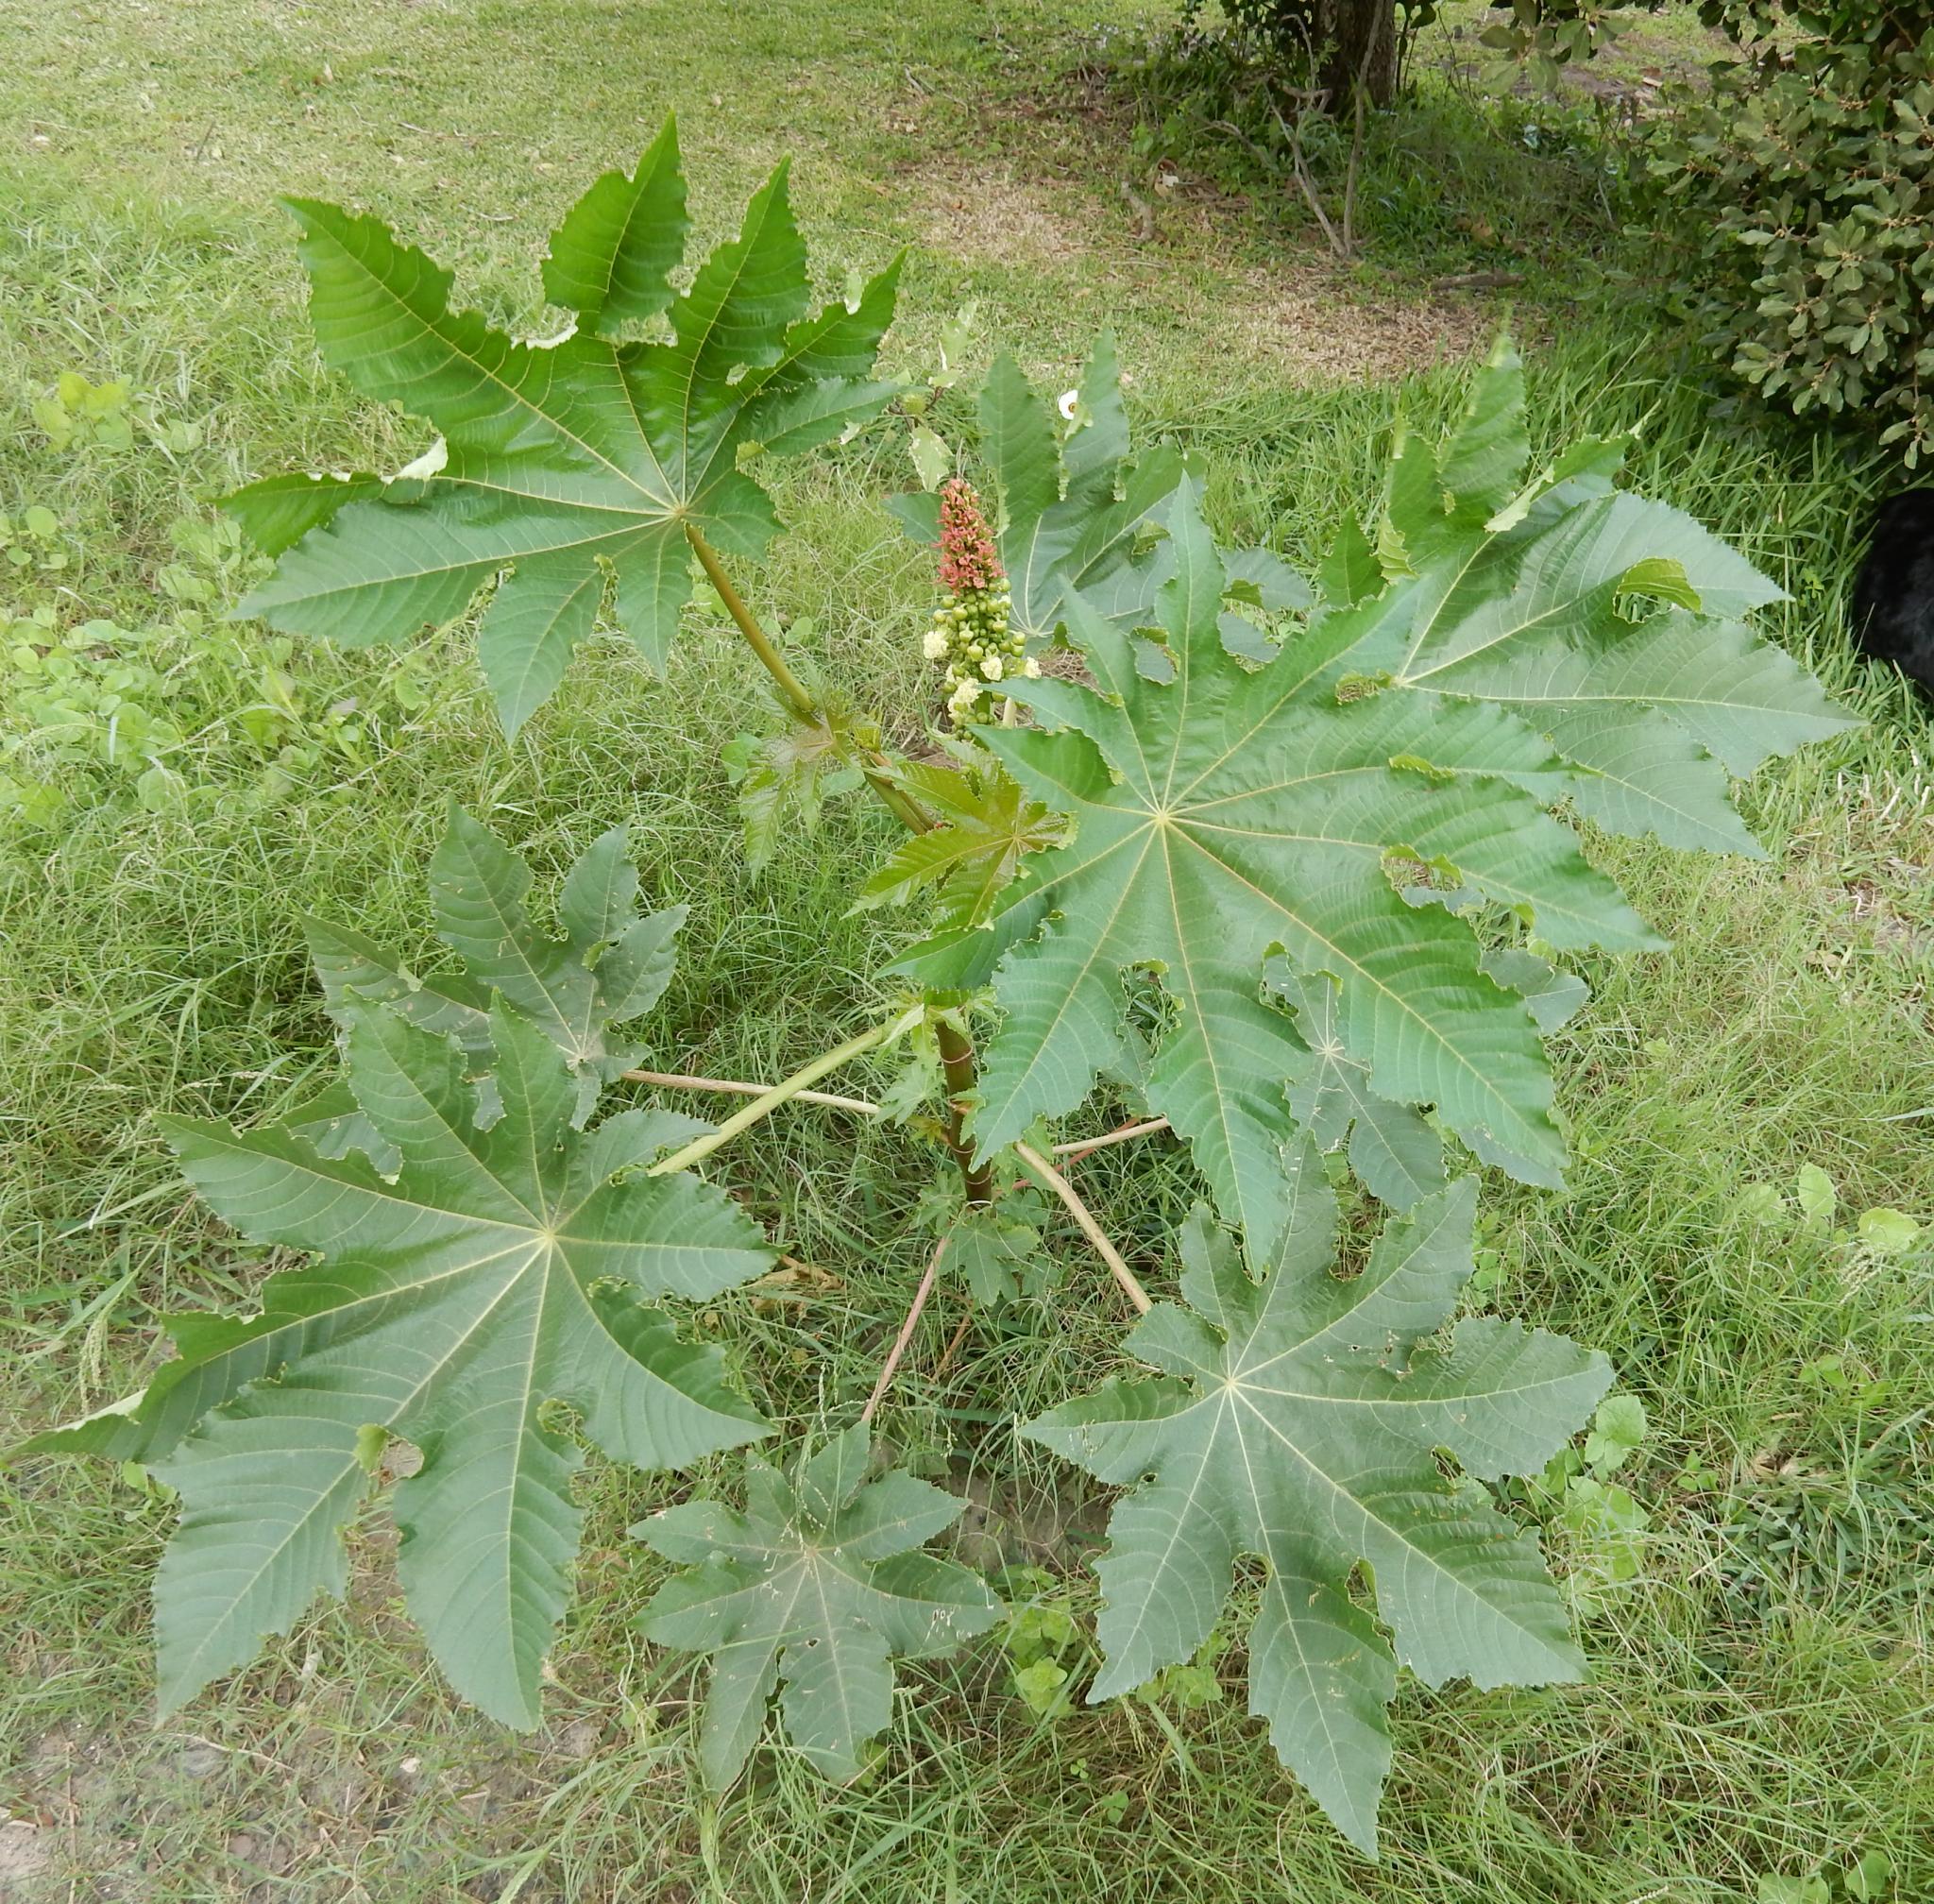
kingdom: Plantae
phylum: Tracheophyta
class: Magnoliopsida
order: Malpighiales
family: Euphorbiaceae
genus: Ricinus
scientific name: Ricinus communis
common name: Castor-oil-plant
